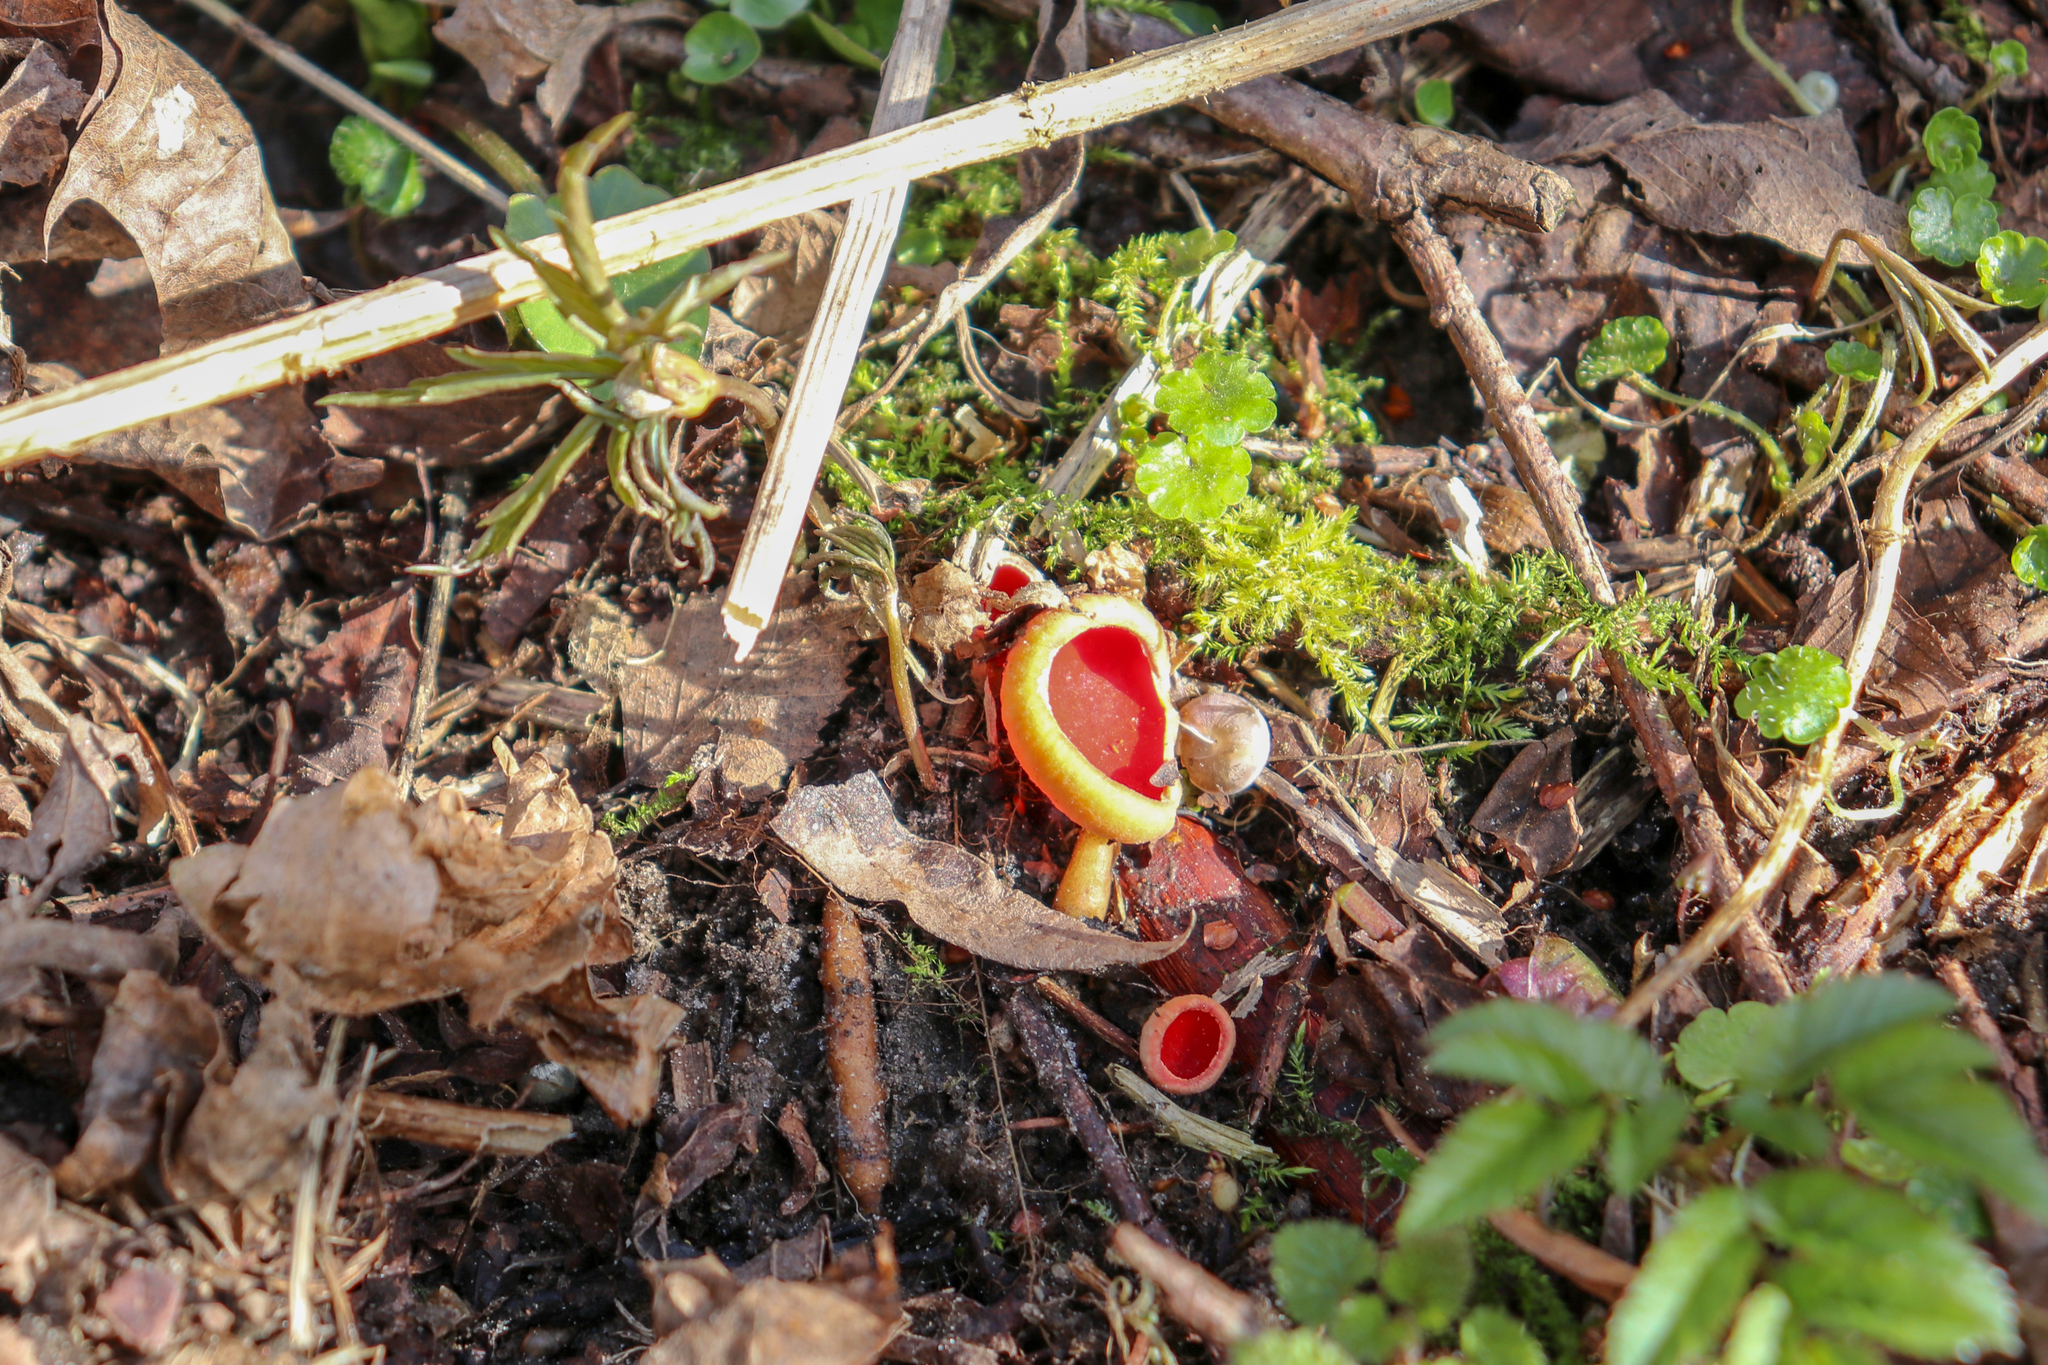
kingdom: Fungi
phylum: Ascomycota
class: Pezizomycetes
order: Pezizales
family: Sarcoscyphaceae
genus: Sarcoscypha
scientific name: Sarcoscypha austriaca
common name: Scarlet elfcup
